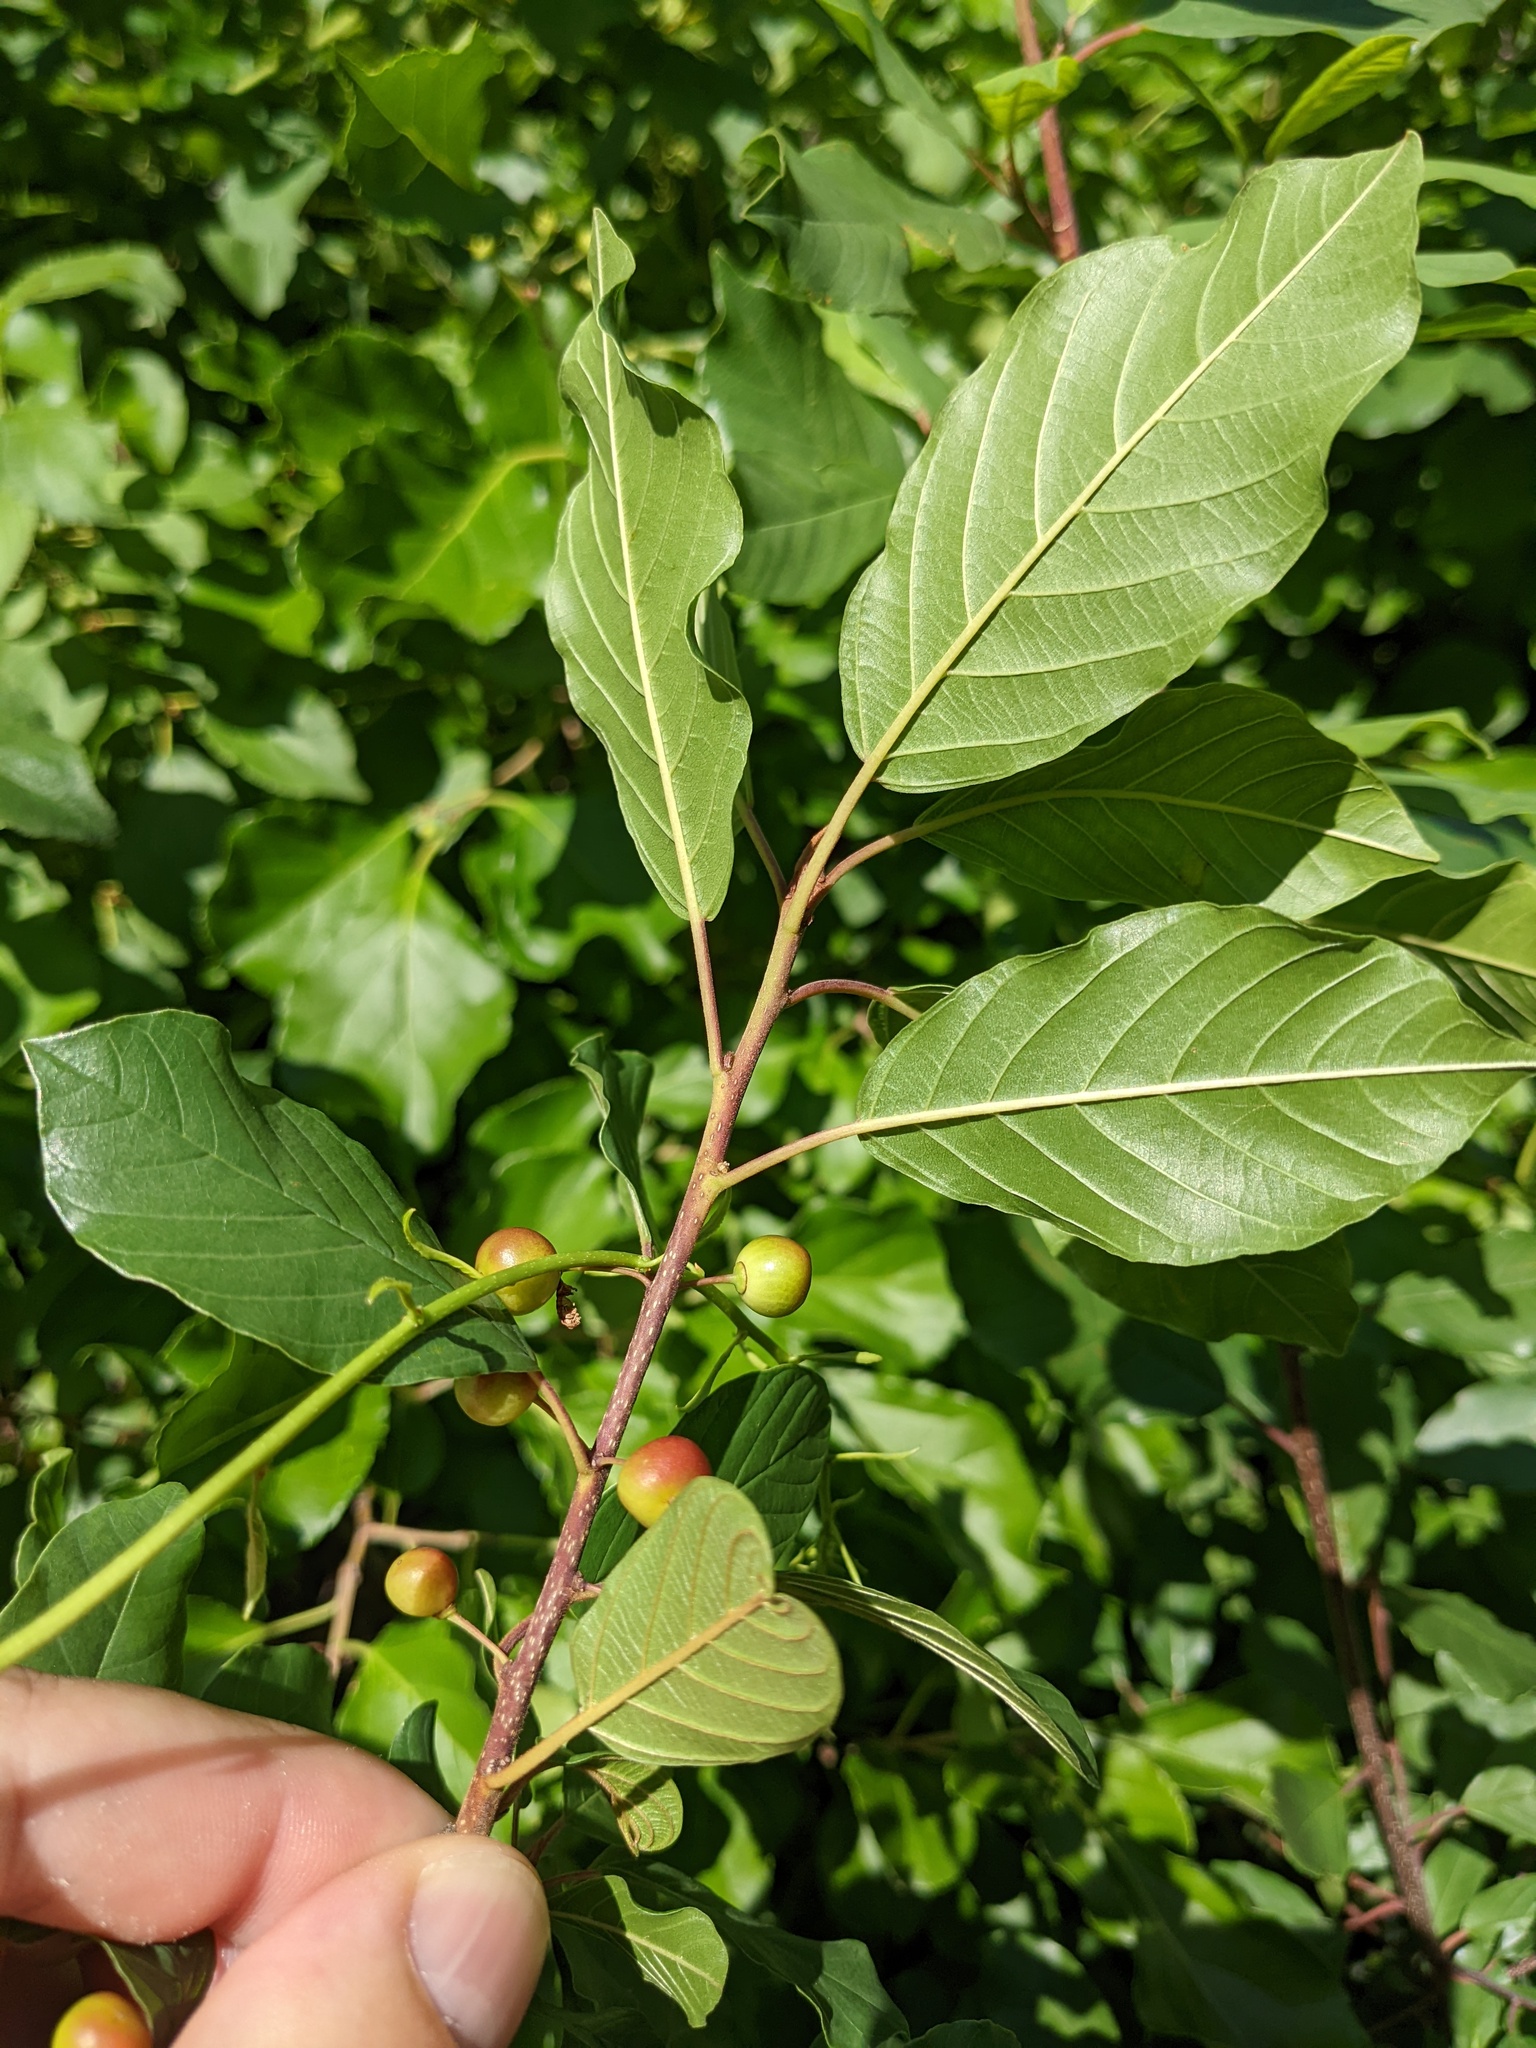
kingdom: Plantae
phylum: Tracheophyta
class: Magnoliopsida
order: Rosales
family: Rhamnaceae
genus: Frangula
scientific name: Frangula alnus
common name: Alder buckthorn
